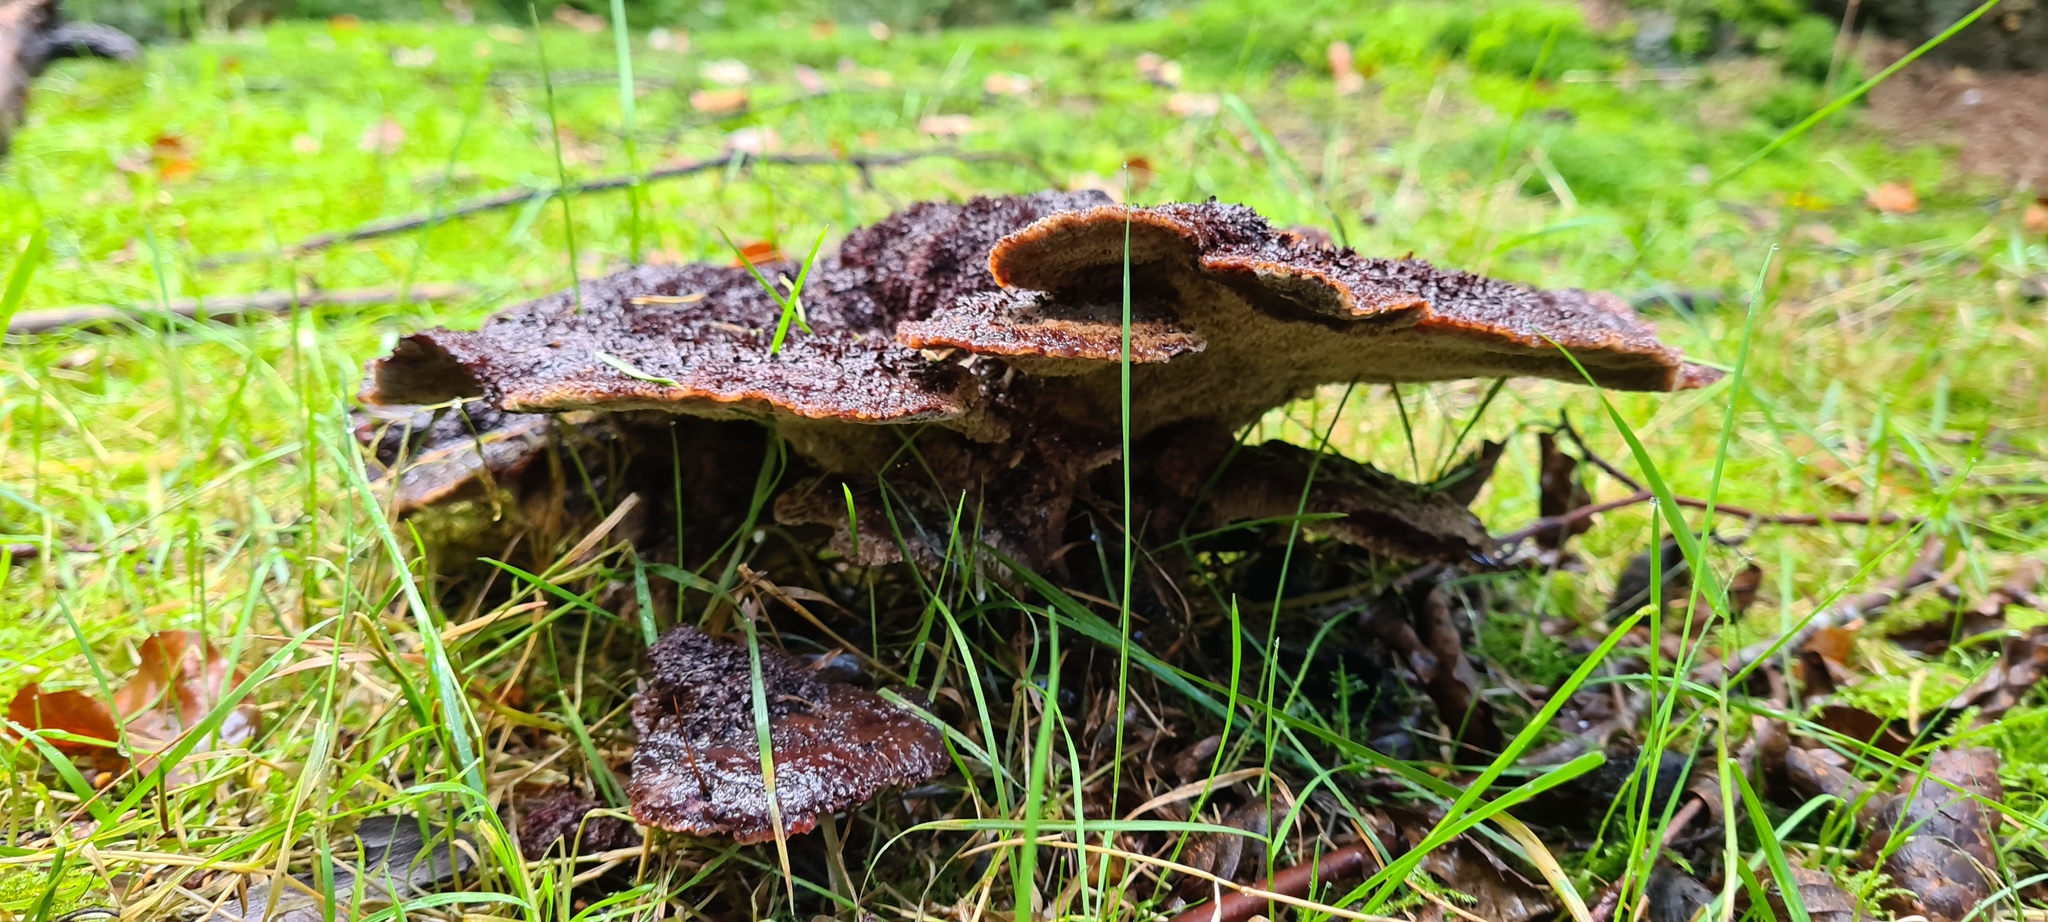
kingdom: Fungi
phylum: Basidiomycota
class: Agaricomycetes
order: Polyporales
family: Laetiporaceae
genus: Phaeolus
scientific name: Phaeolus schweinitzii
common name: Dyer's mazegill
